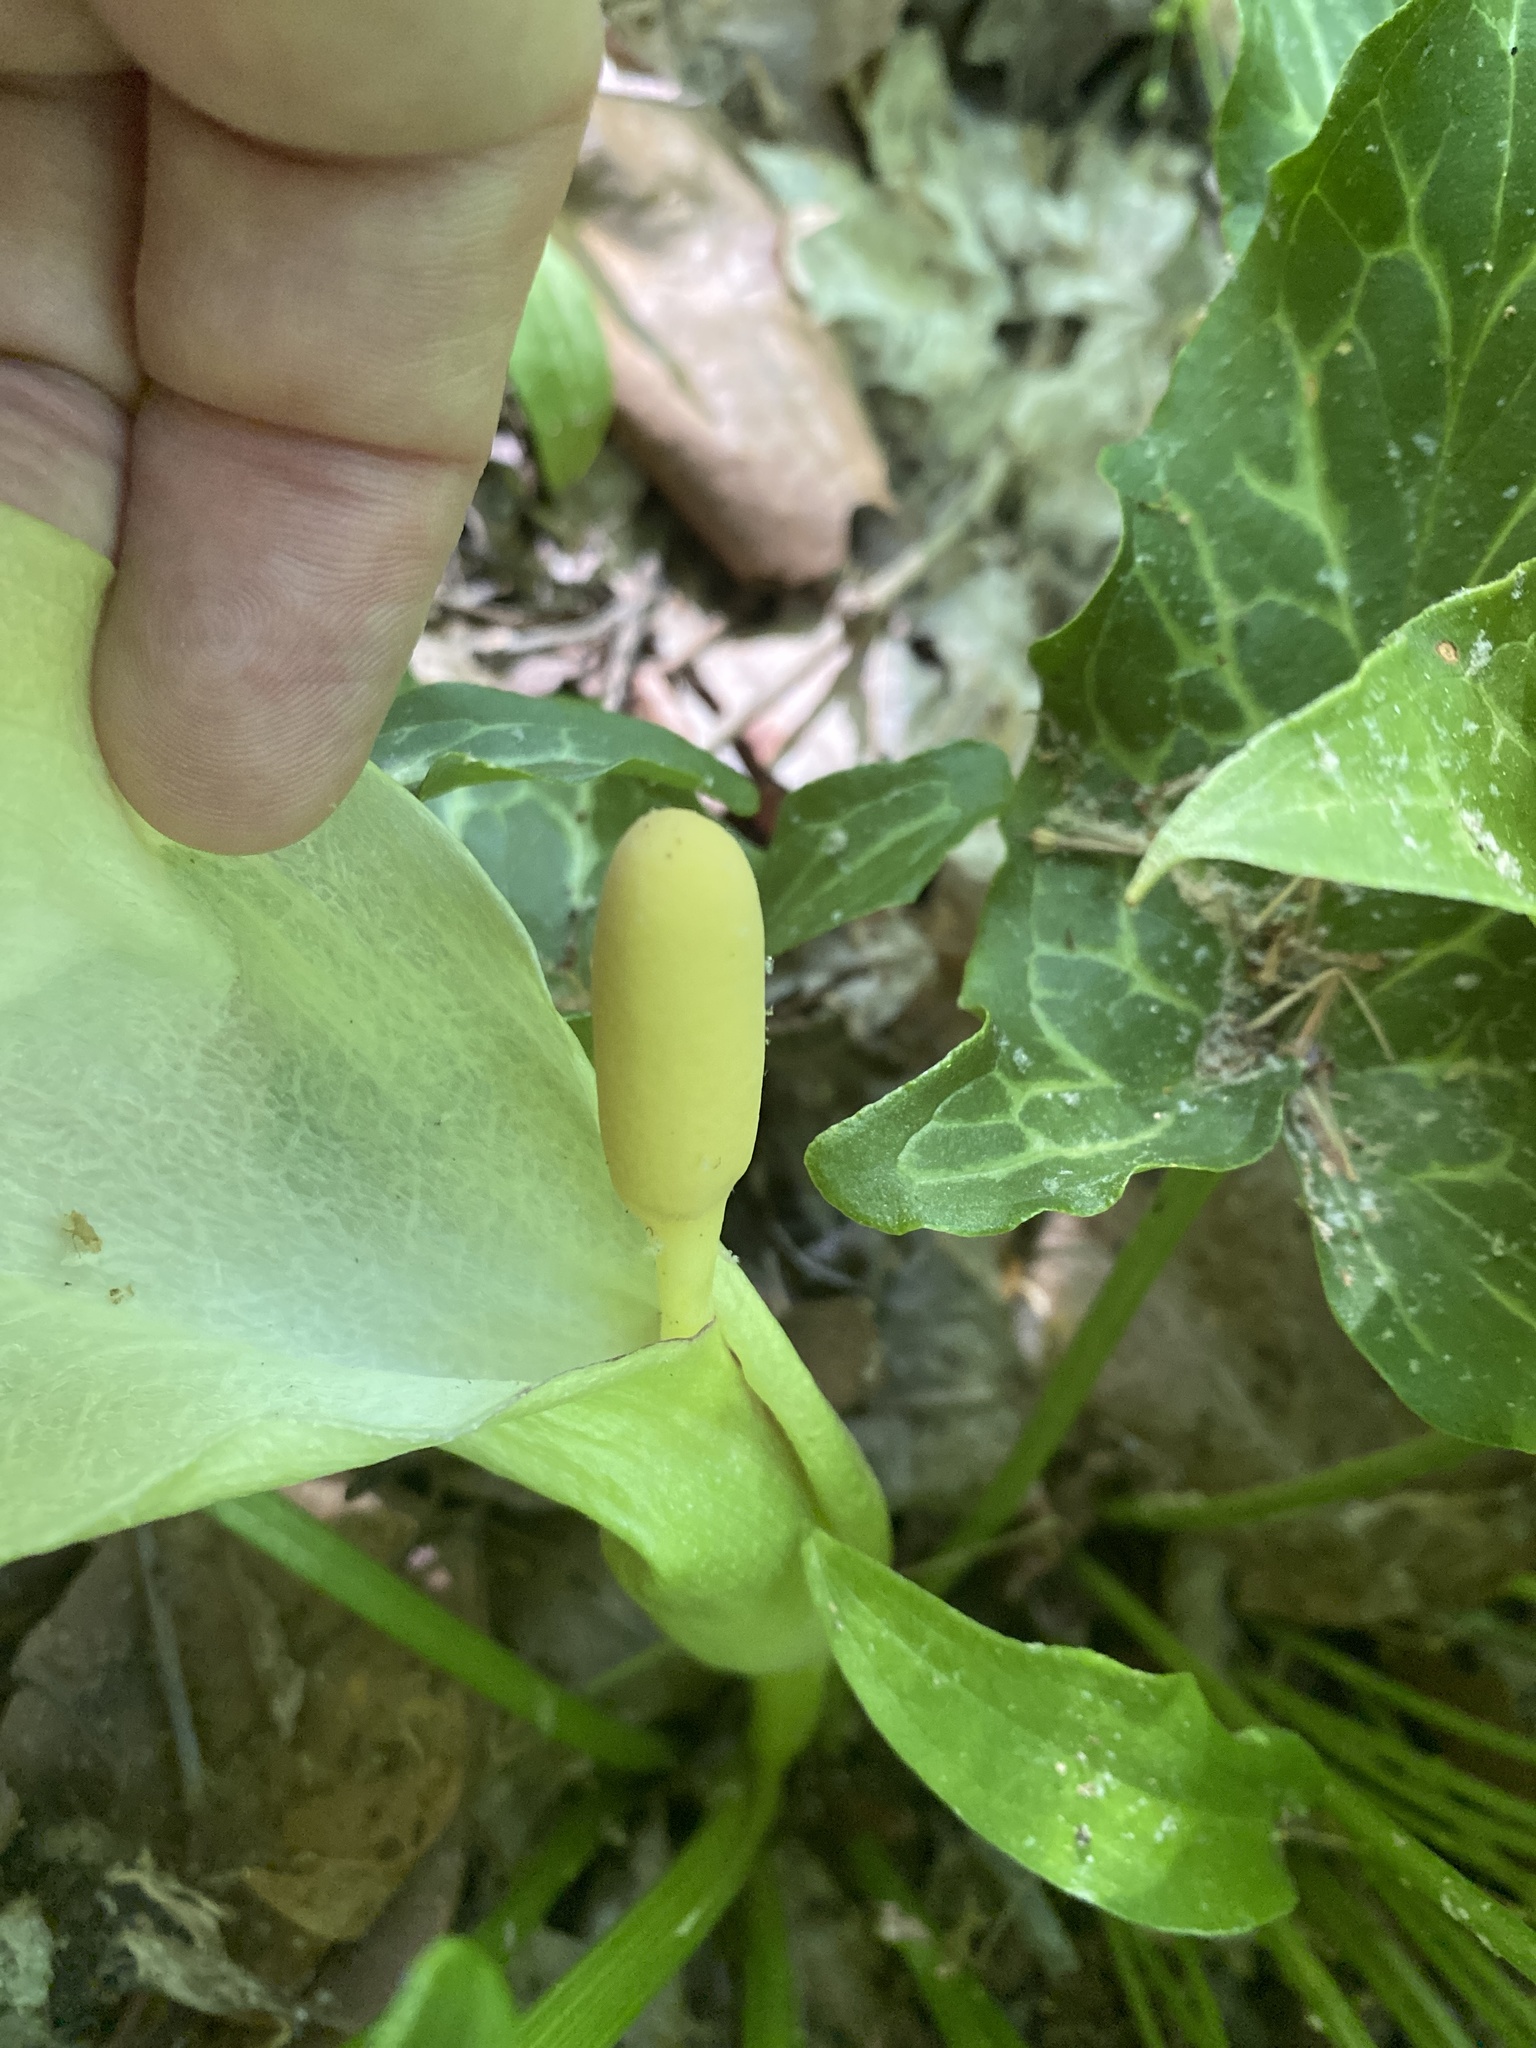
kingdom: Plantae
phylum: Tracheophyta
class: Liliopsida
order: Alismatales
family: Araceae
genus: Arum
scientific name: Arum italicum
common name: Italian lords-and-ladies
